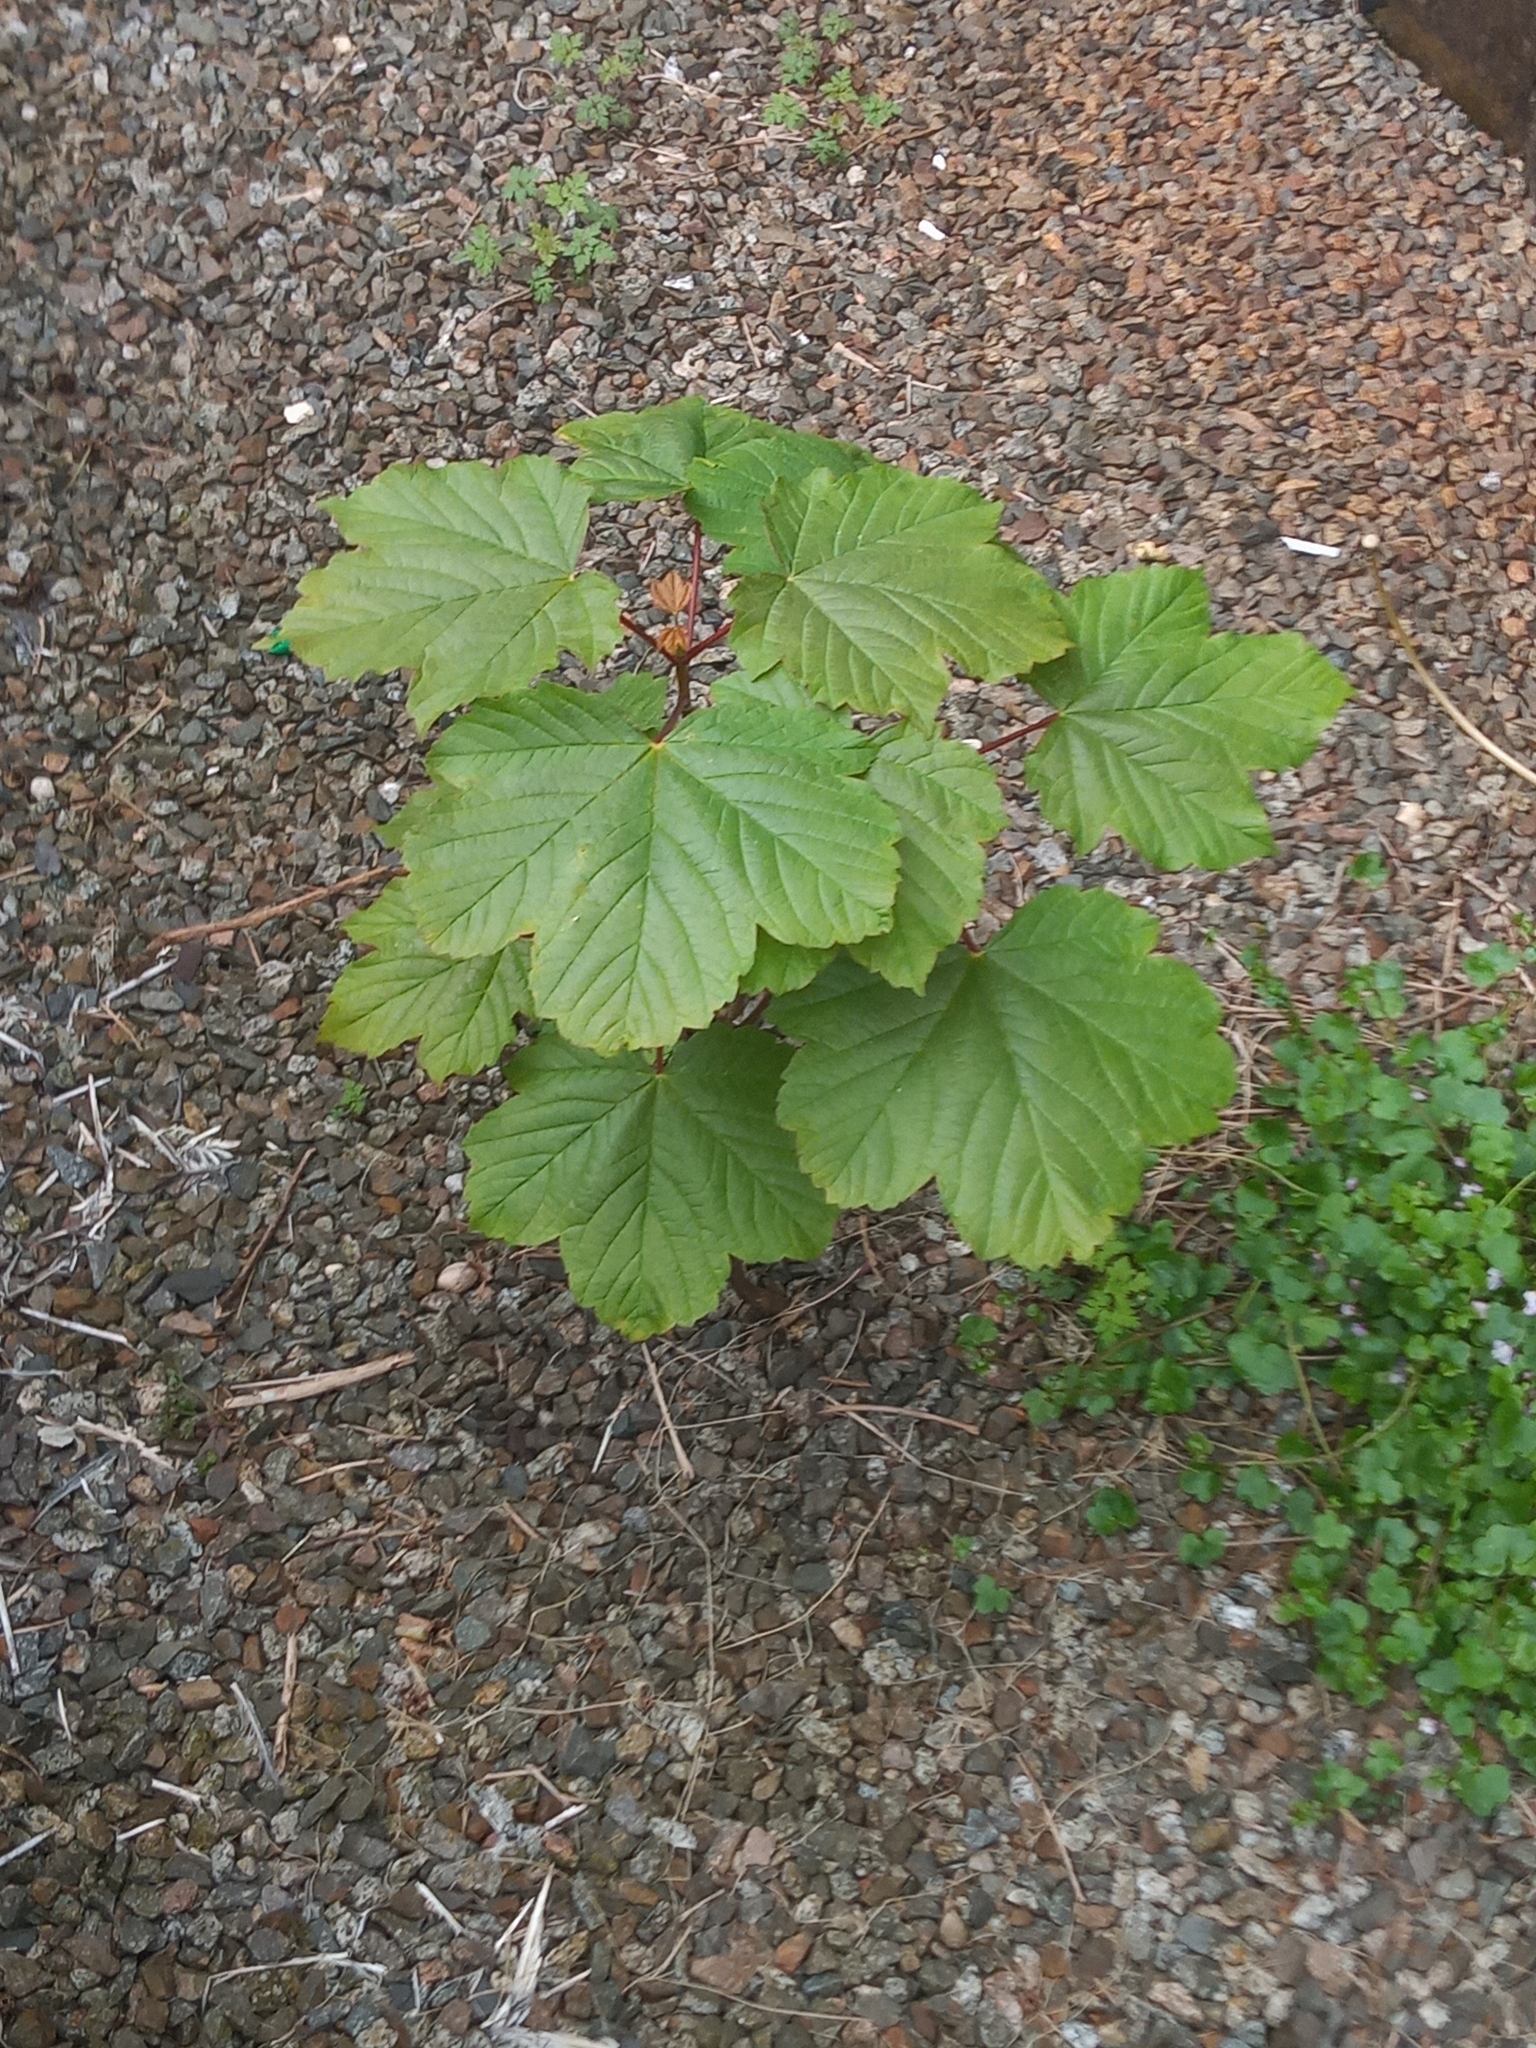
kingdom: Plantae
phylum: Tracheophyta
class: Magnoliopsida
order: Sapindales
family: Sapindaceae
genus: Acer
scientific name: Acer pseudoplatanus
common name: Sycamore
